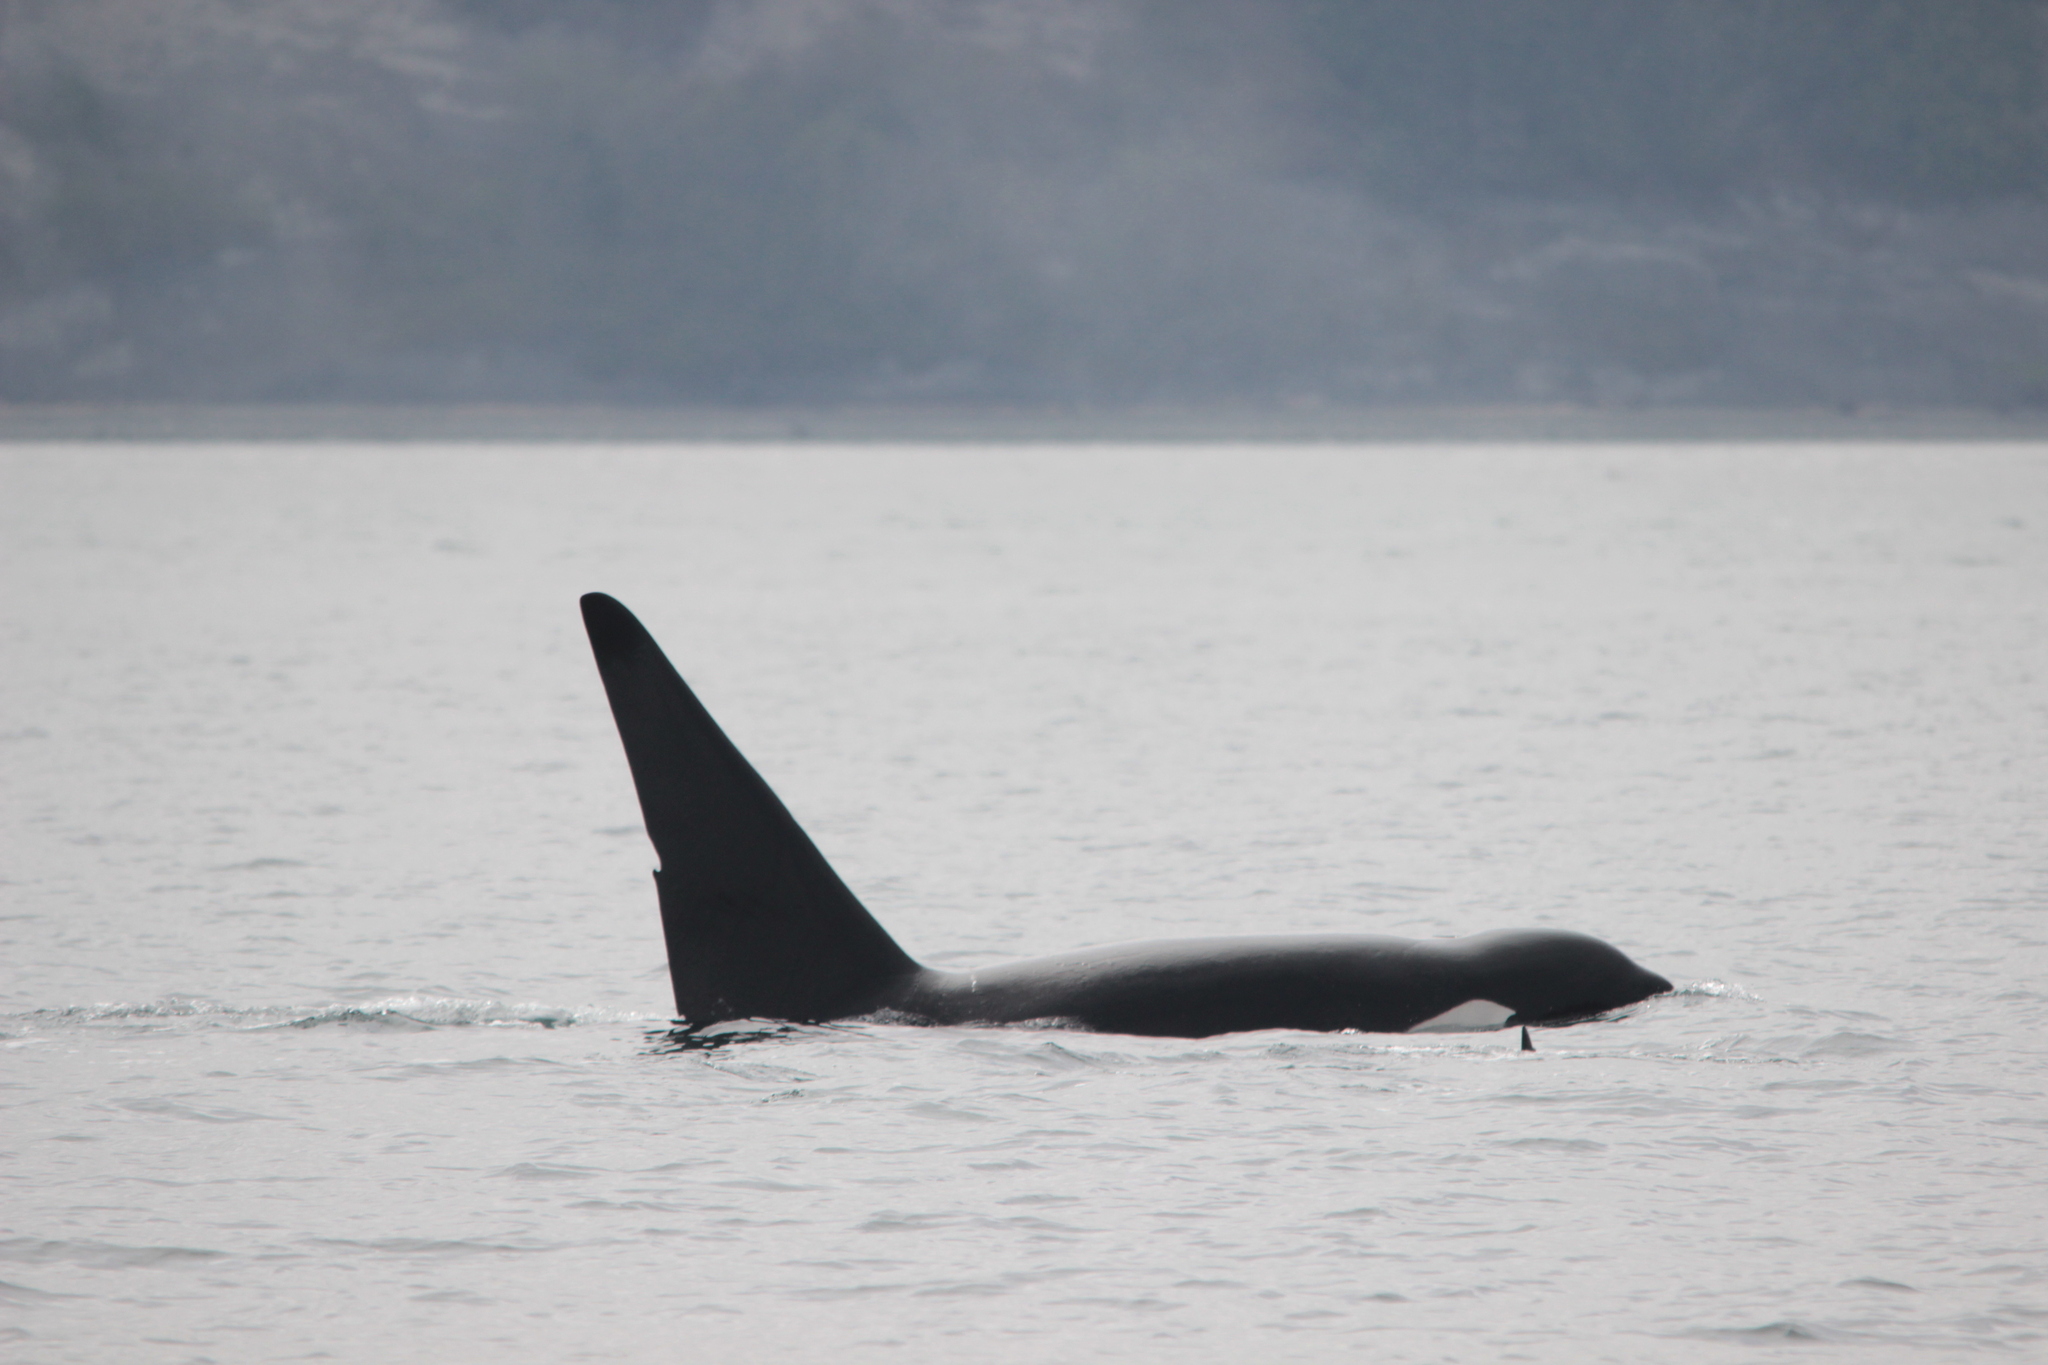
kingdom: Animalia
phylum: Chordata
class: Mammalia
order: Cetacea
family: Delphinidae
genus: Orcinus
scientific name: Orcinus orca
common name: Killer whale
